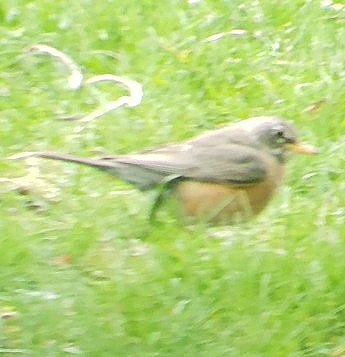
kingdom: Animalia
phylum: Chordata
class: Aves
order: Passeriformes
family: Turdidae
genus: Turdus
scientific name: Turdus migratorius
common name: American robin
